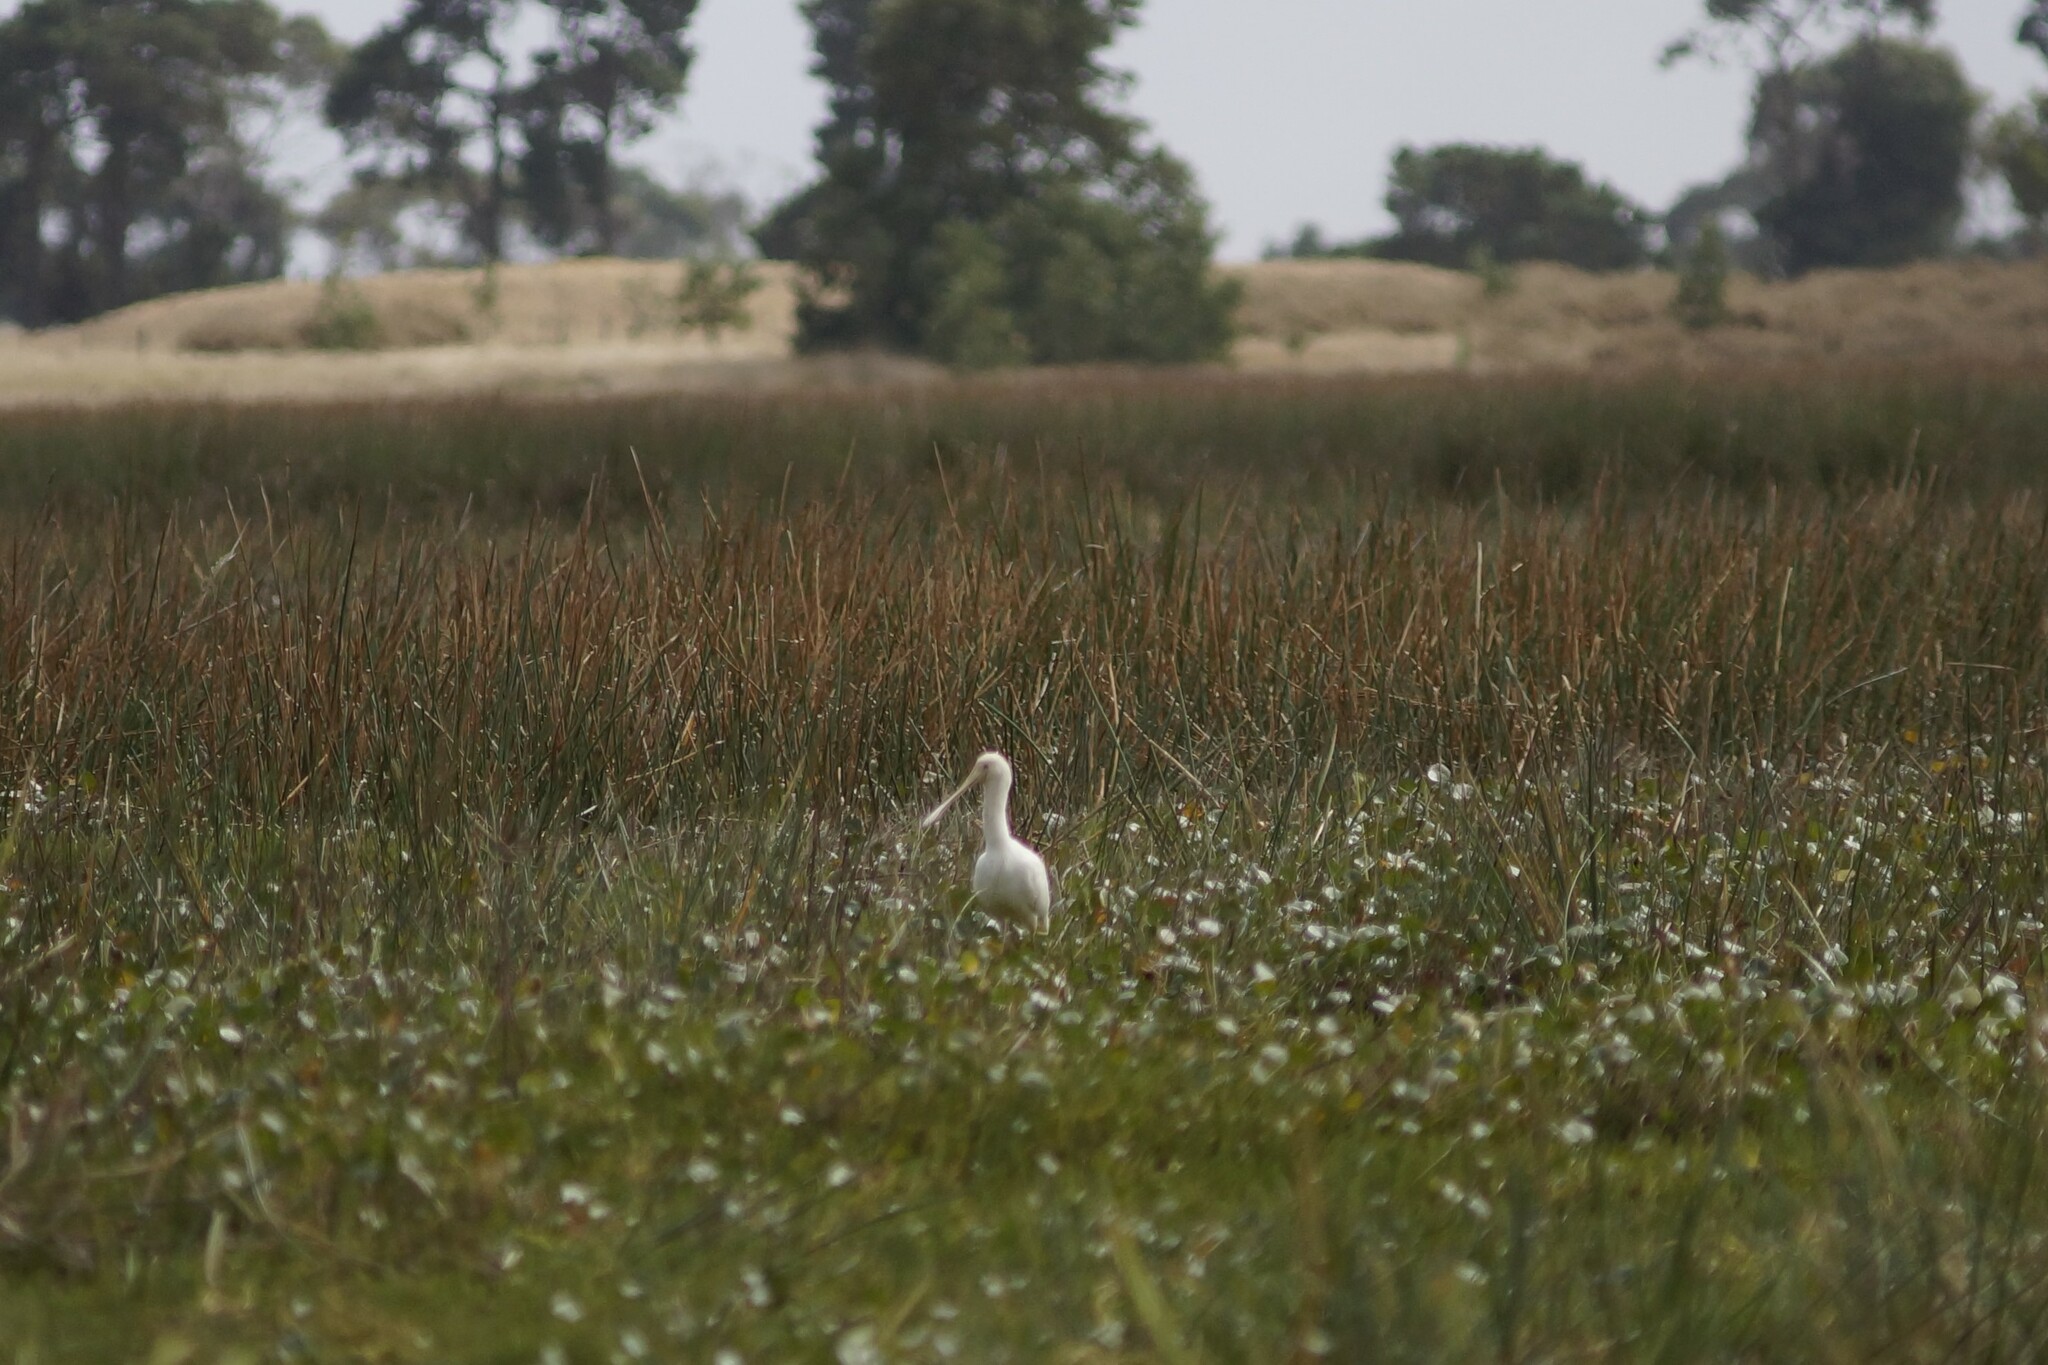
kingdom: Animalia
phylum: Chordata
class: Aves
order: Pelecaniformes
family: Threskiornithidae
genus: Platalea
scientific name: Platalea flavipes
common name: Yellow-billed spoonbill
